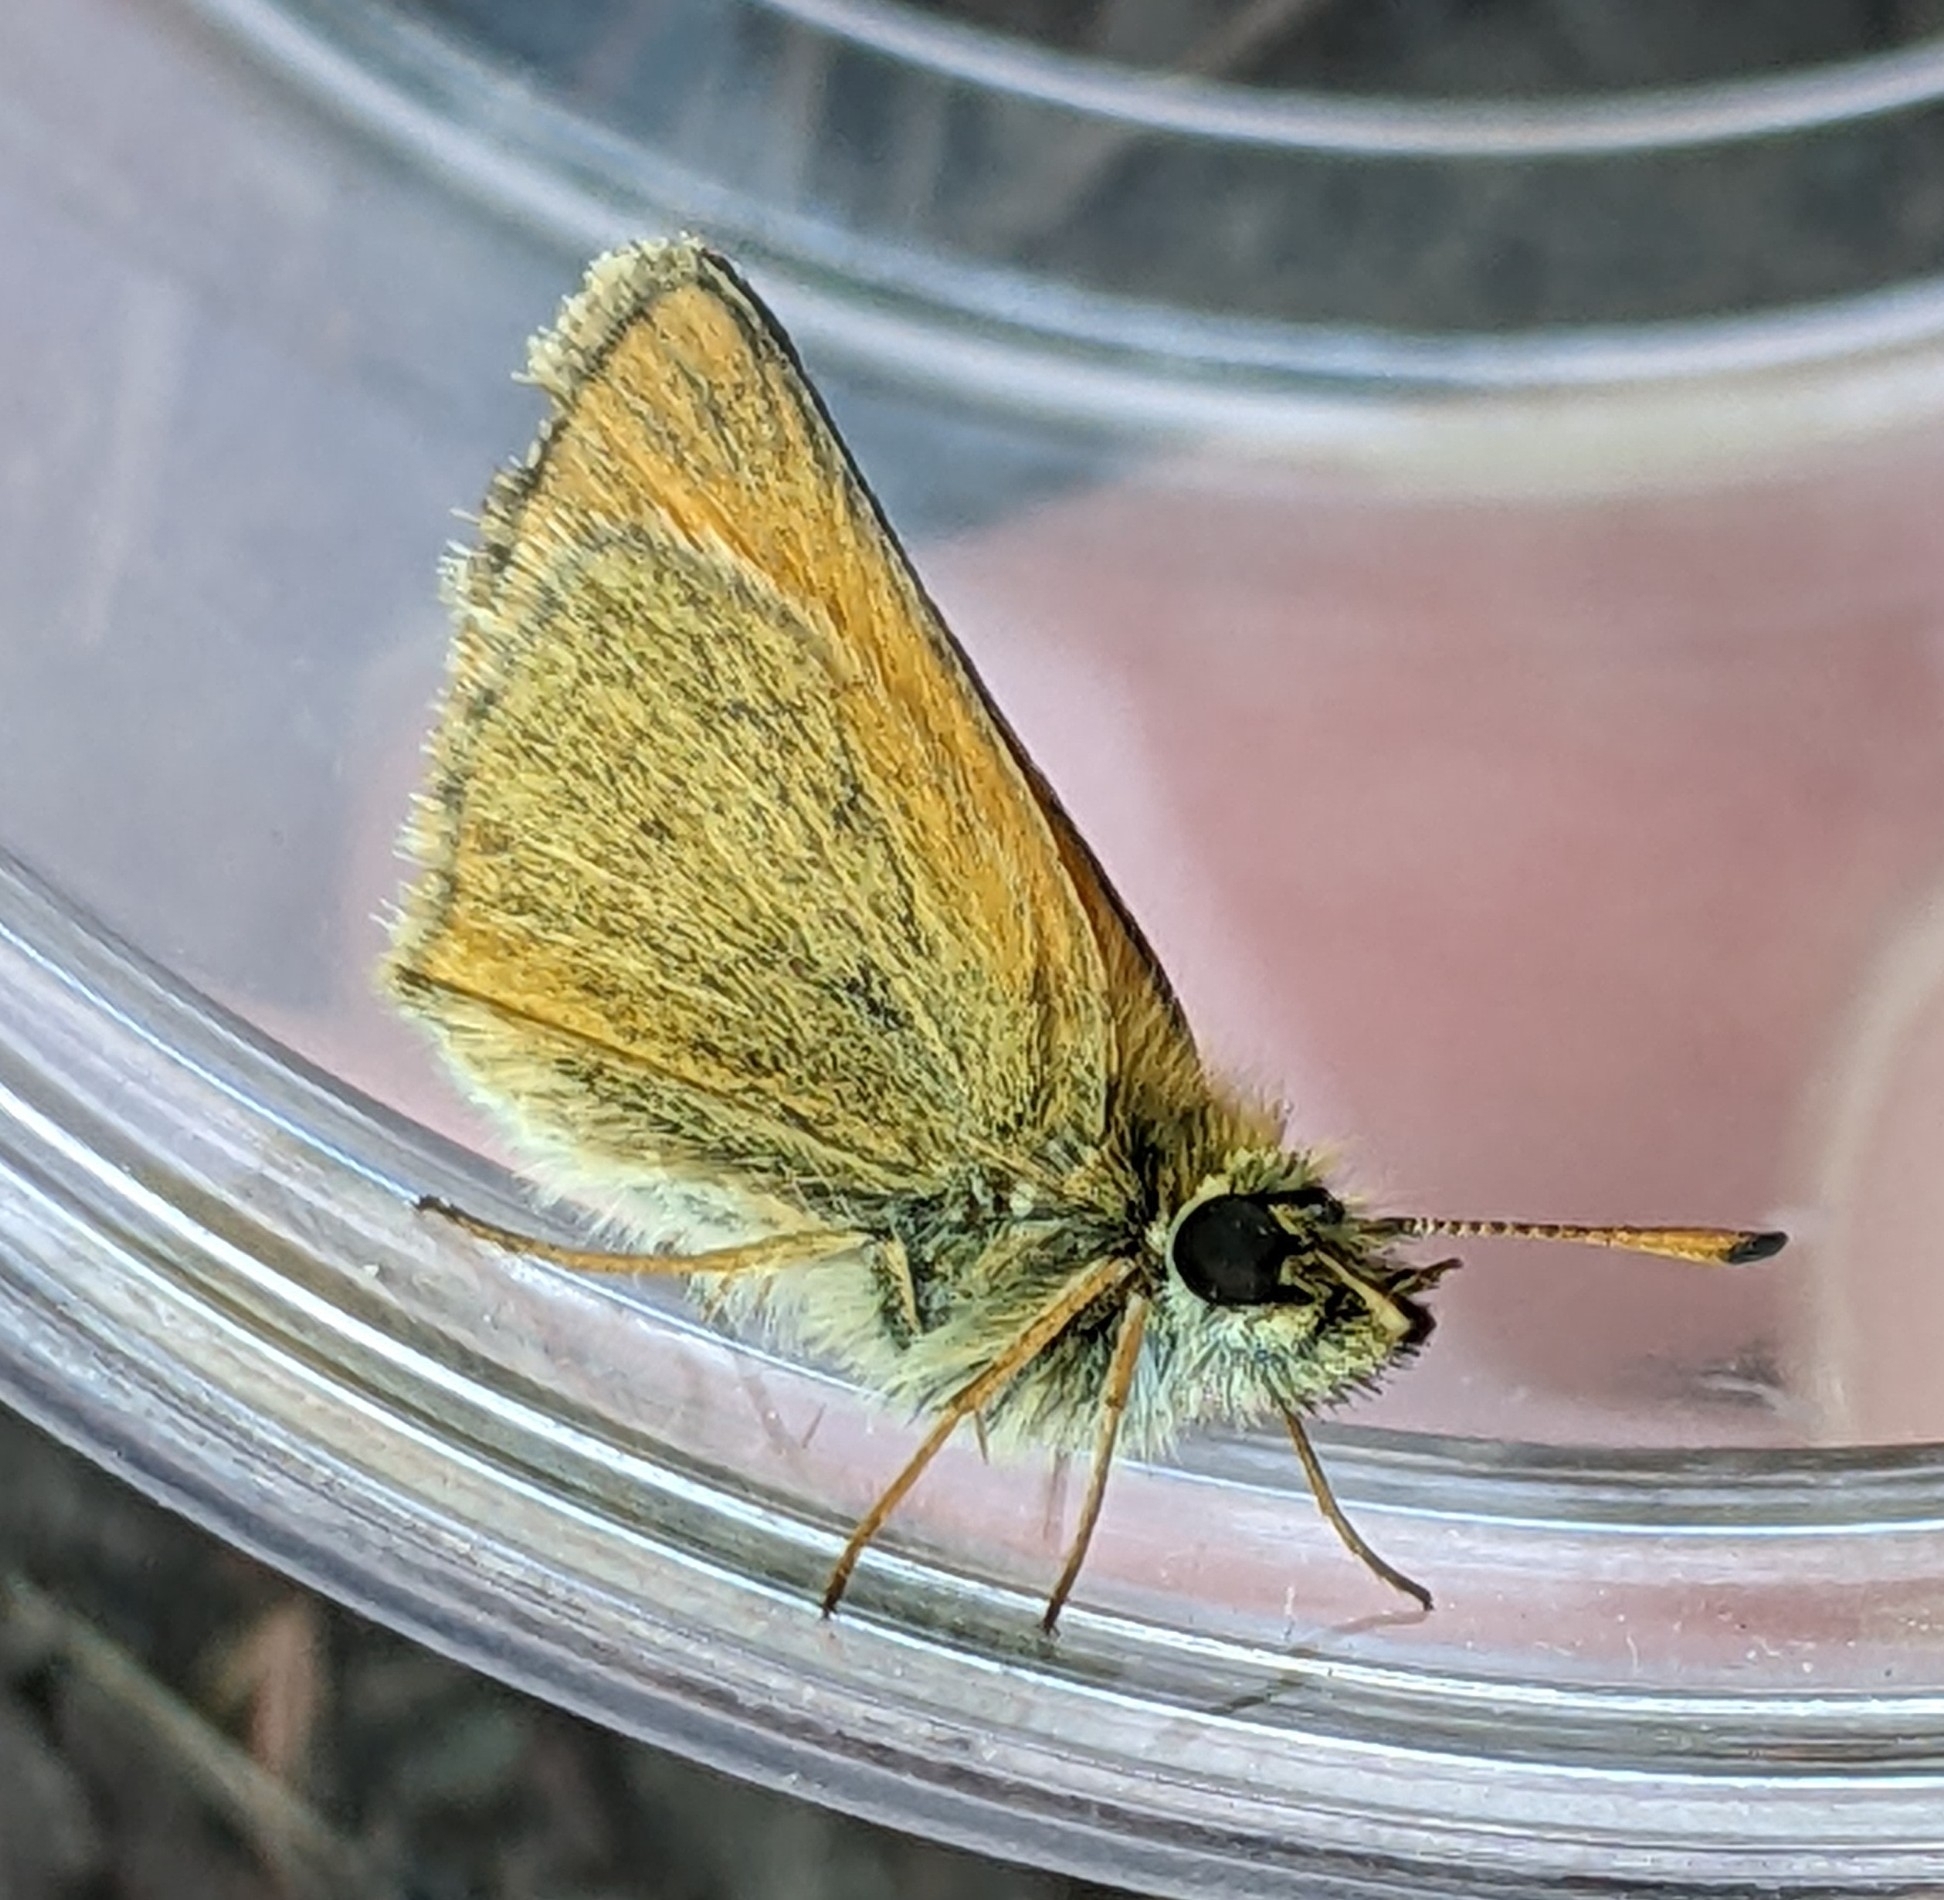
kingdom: Animalia
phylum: Arthropoda
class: Insecta
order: Lepidoptera
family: Hesperiidae
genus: Thymelicus
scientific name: Thymelicus lineola
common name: Essex skipper
